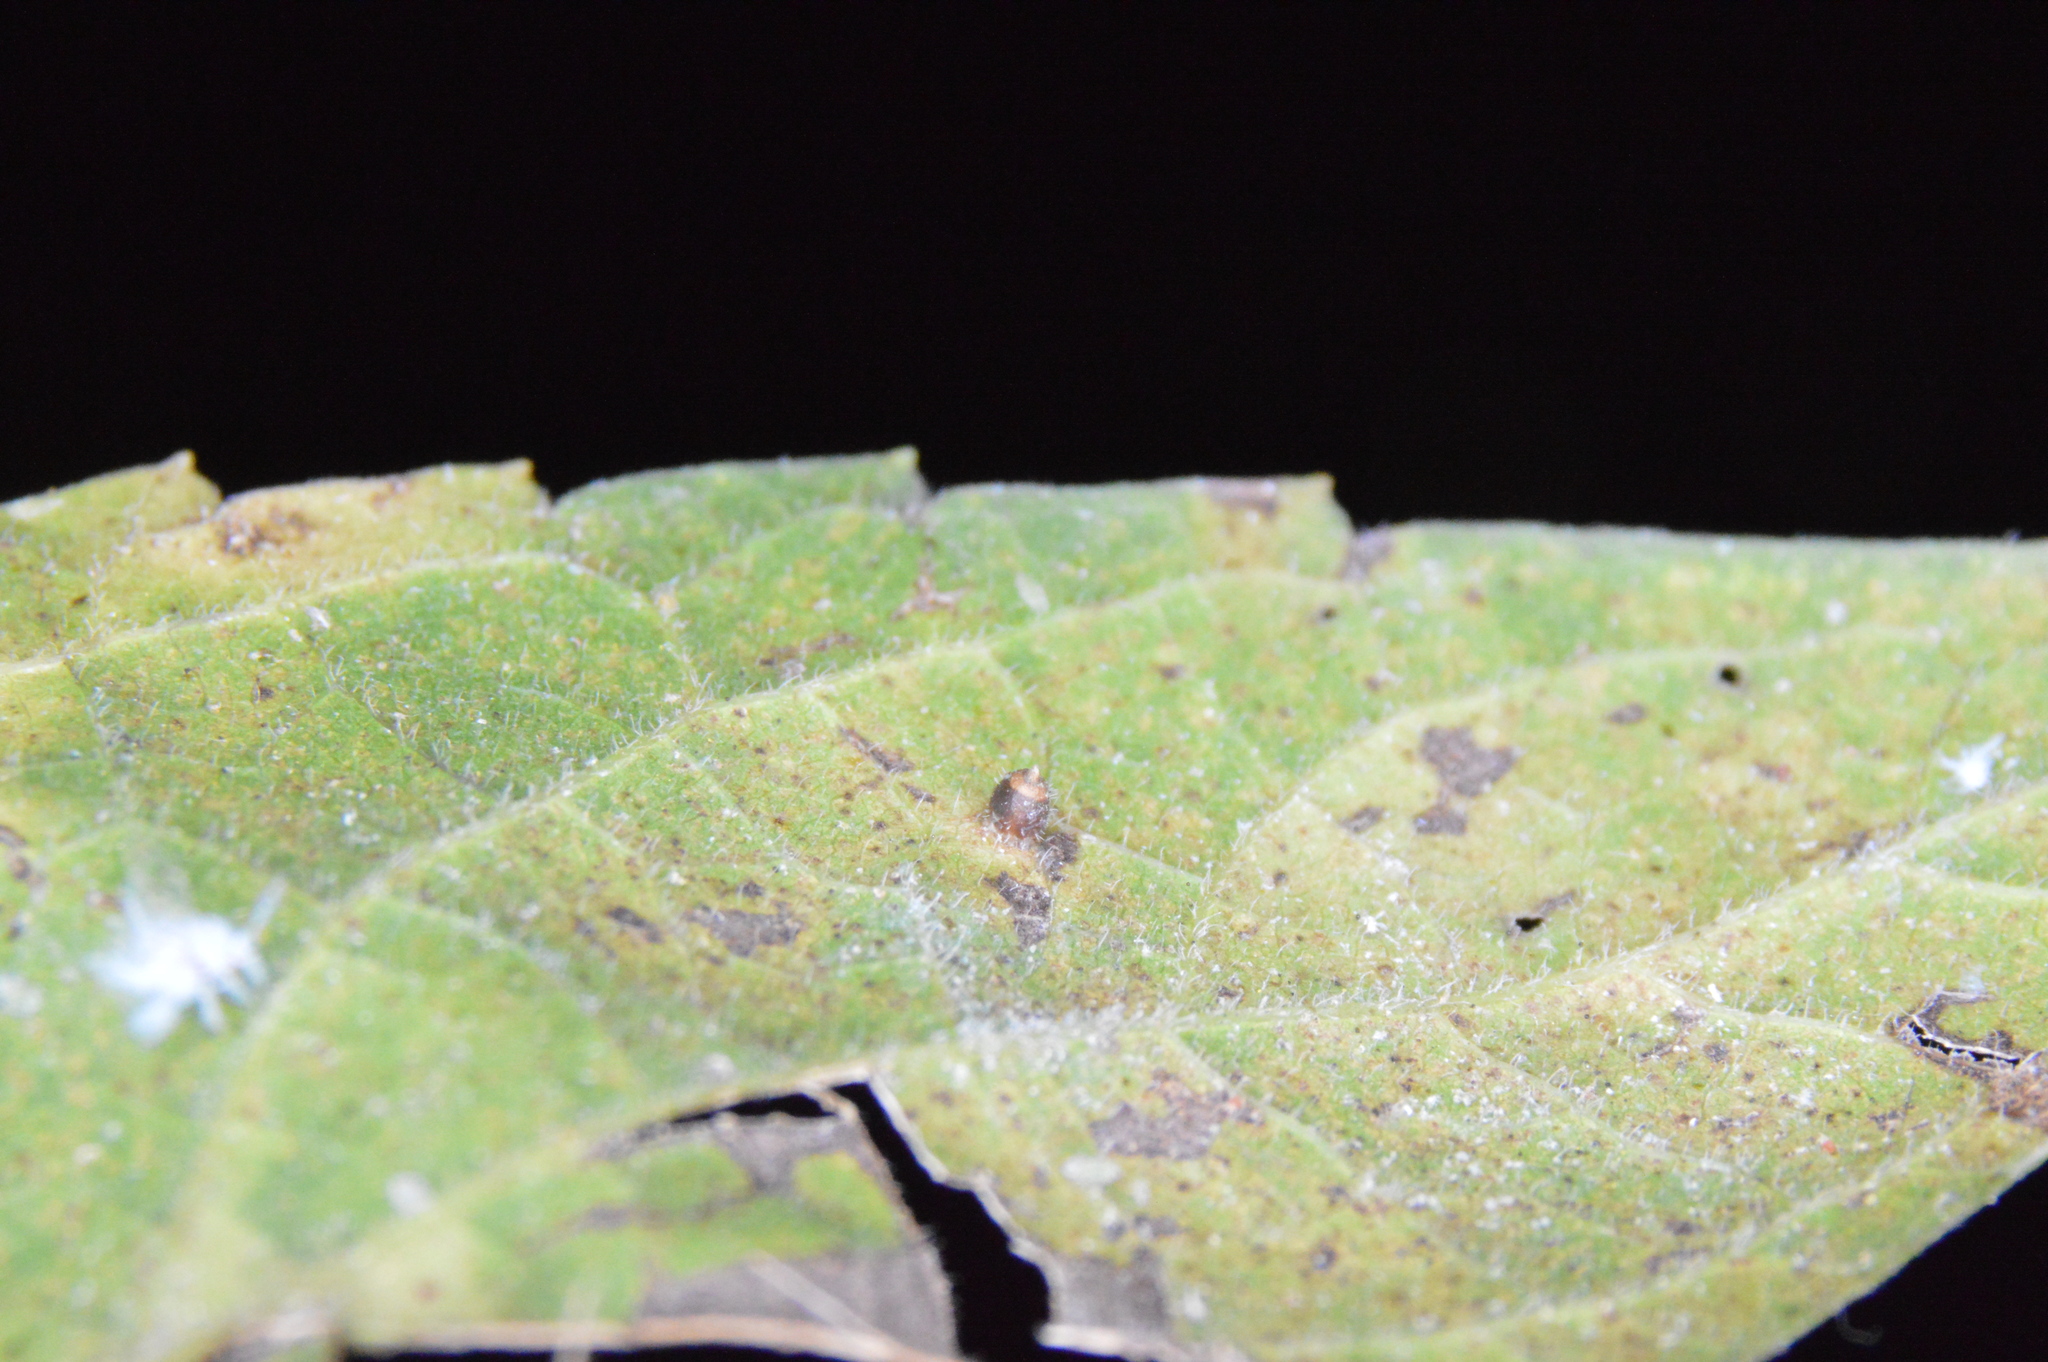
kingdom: Animalia
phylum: Arthropoda
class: Insecta
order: Diptera
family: Cecidomyiidae
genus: Celticecis
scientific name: Celticecis cupiformis
